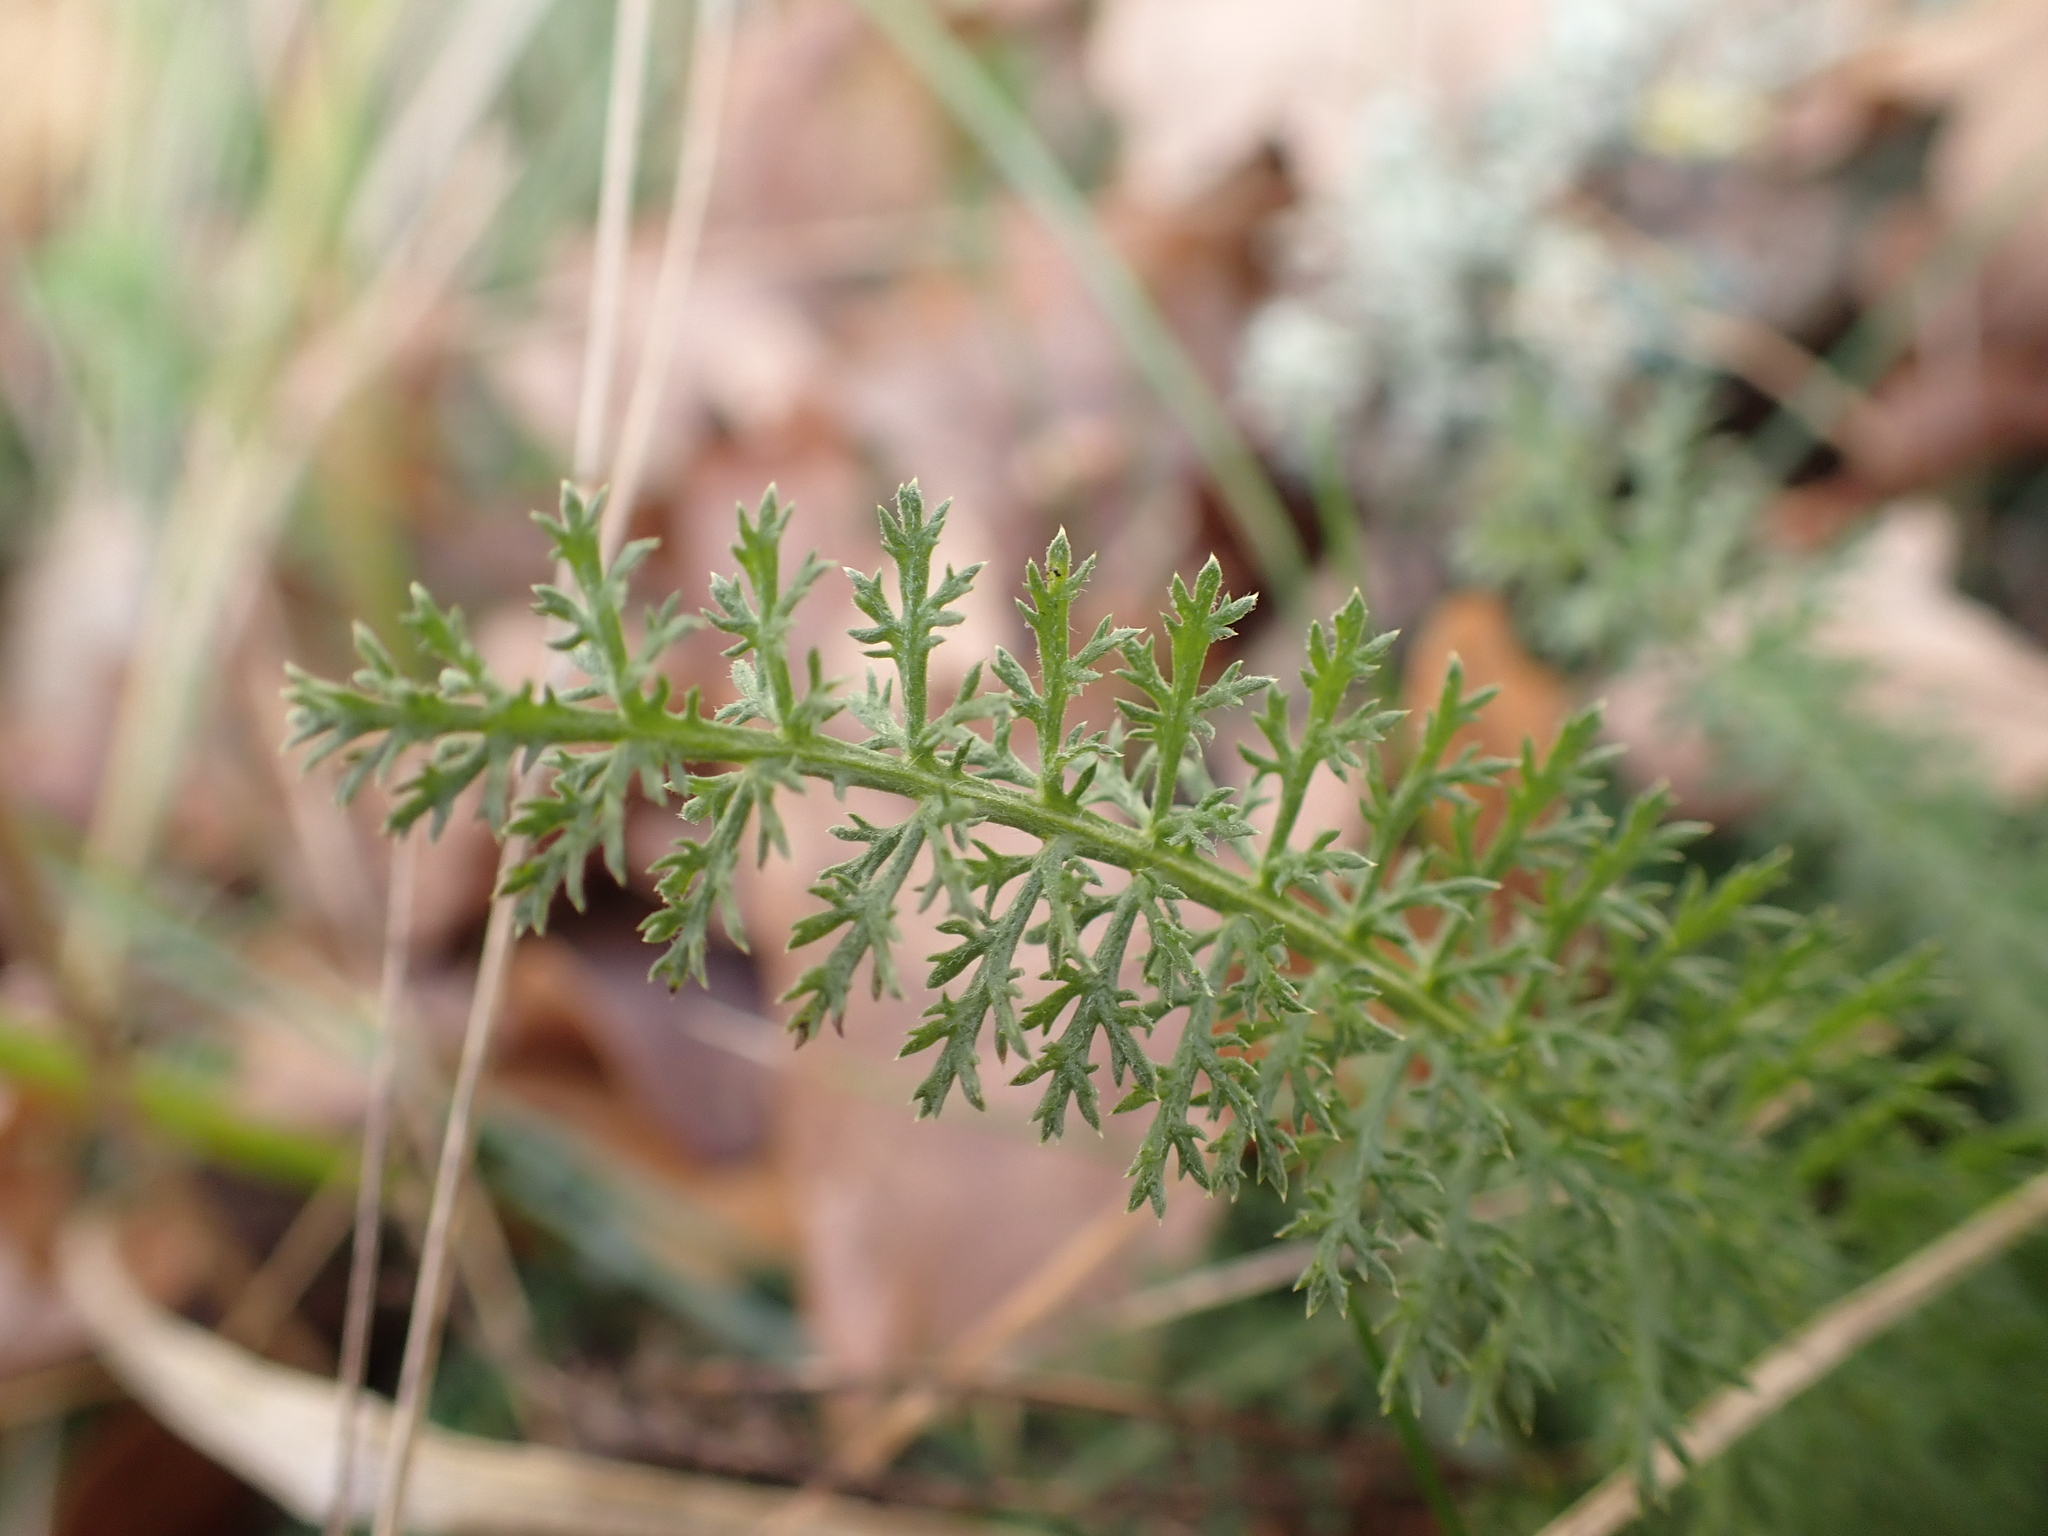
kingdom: Plantae
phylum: Tracheophyta
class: Magnoliopsida
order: Asterales
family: Asteraceae
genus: Achillea
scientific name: Achillea millefolium
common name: Yarrow
